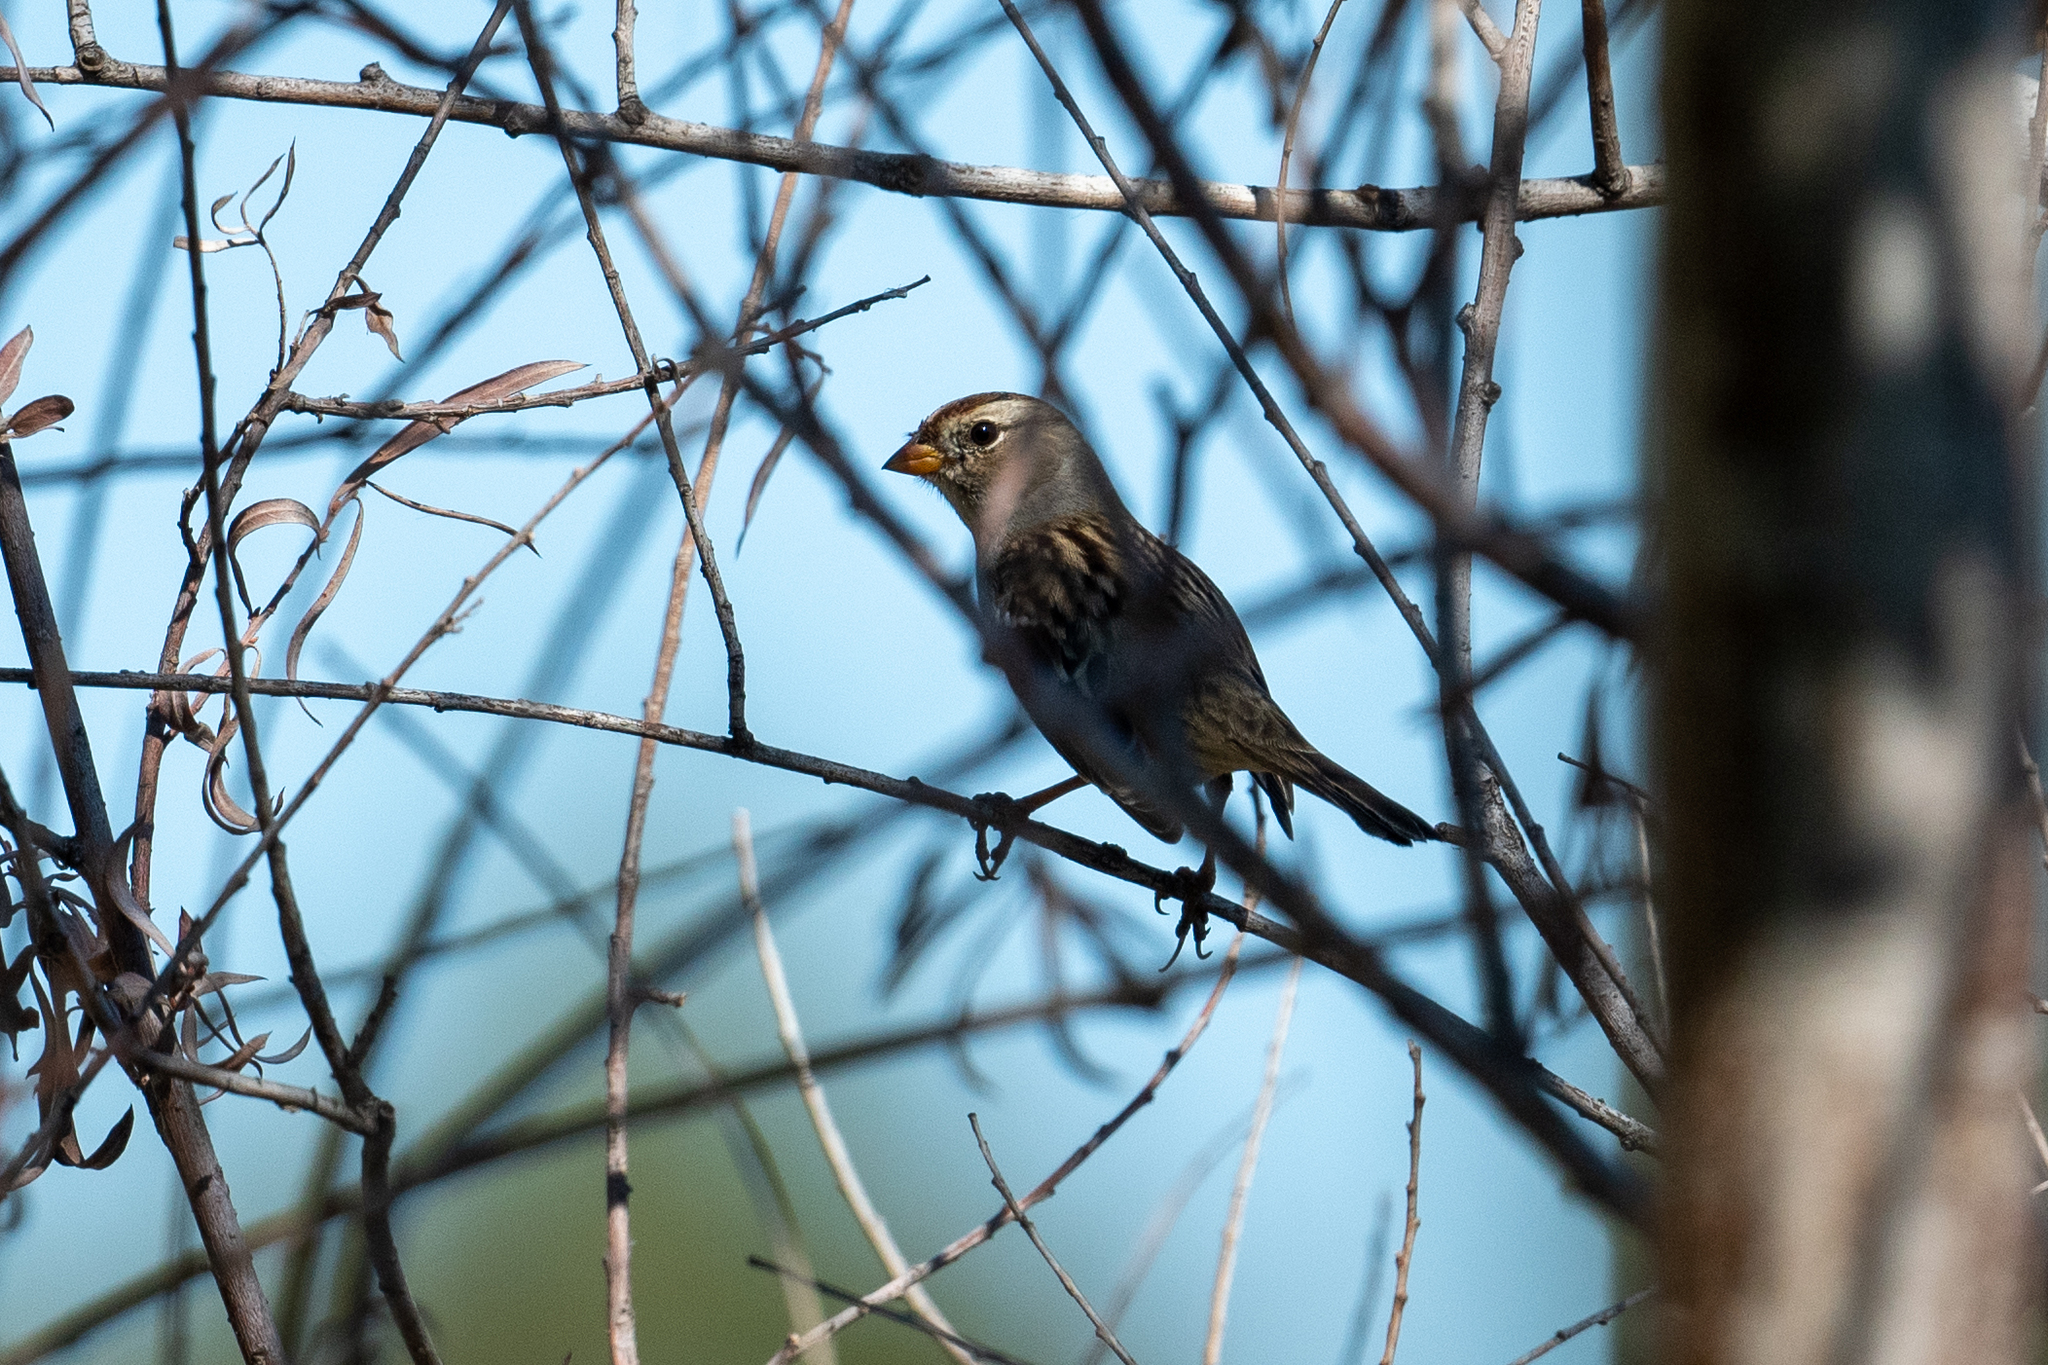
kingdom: Animalia
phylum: Chordata
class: Aves
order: Passeriformes
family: Passerellidae
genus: Zonotrichia
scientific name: Zonotrichia leucophrys
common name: White-crowned sparrow
